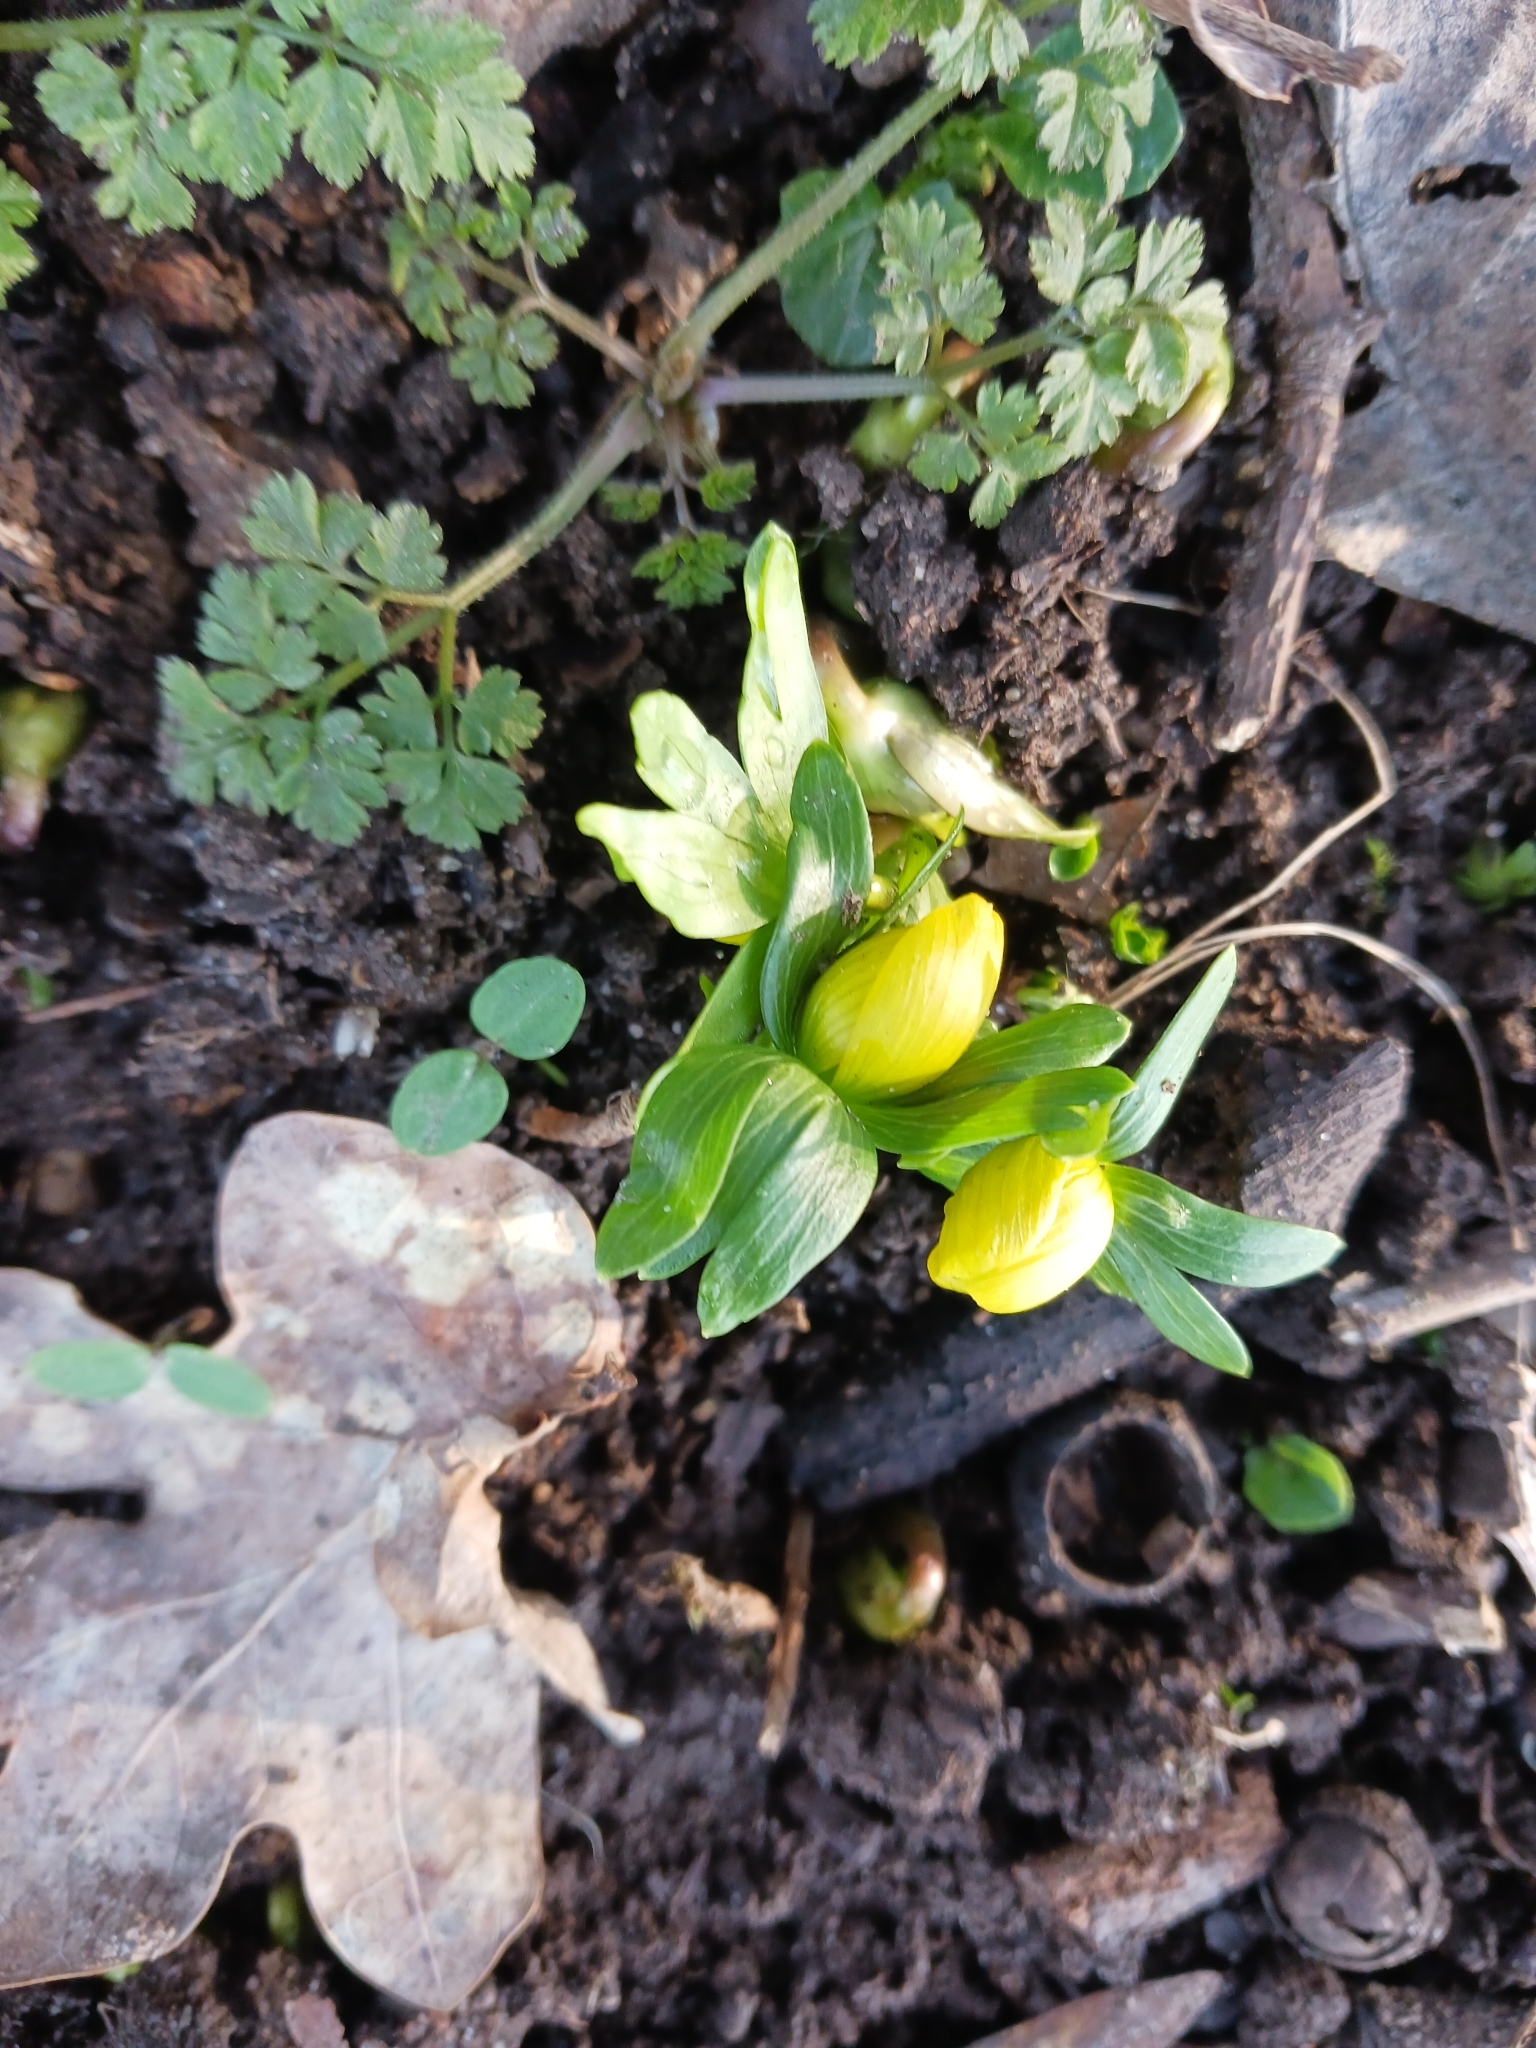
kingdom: Plantae
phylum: Tracheophyta
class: Magnoliopsida
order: Ranunculales
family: Ranunculaceae
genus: Eranthis
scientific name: Eranthis hyemalis
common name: Winter aconite
